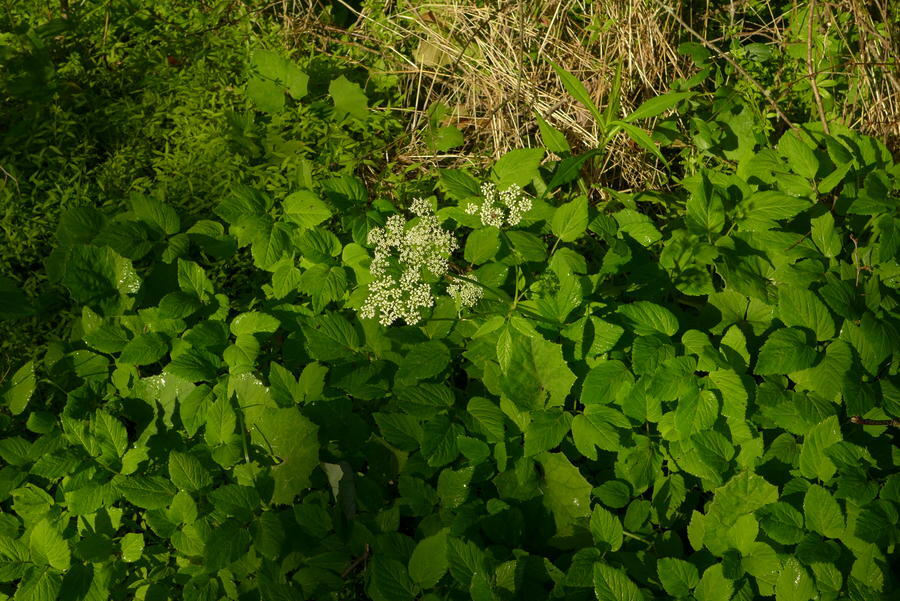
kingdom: Plantae
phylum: Tracheophyta
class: Magnoliopsida
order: Apiales
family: Apiaceae
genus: Aegopodium
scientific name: Aegopodium podagraria
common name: Ground-elder
